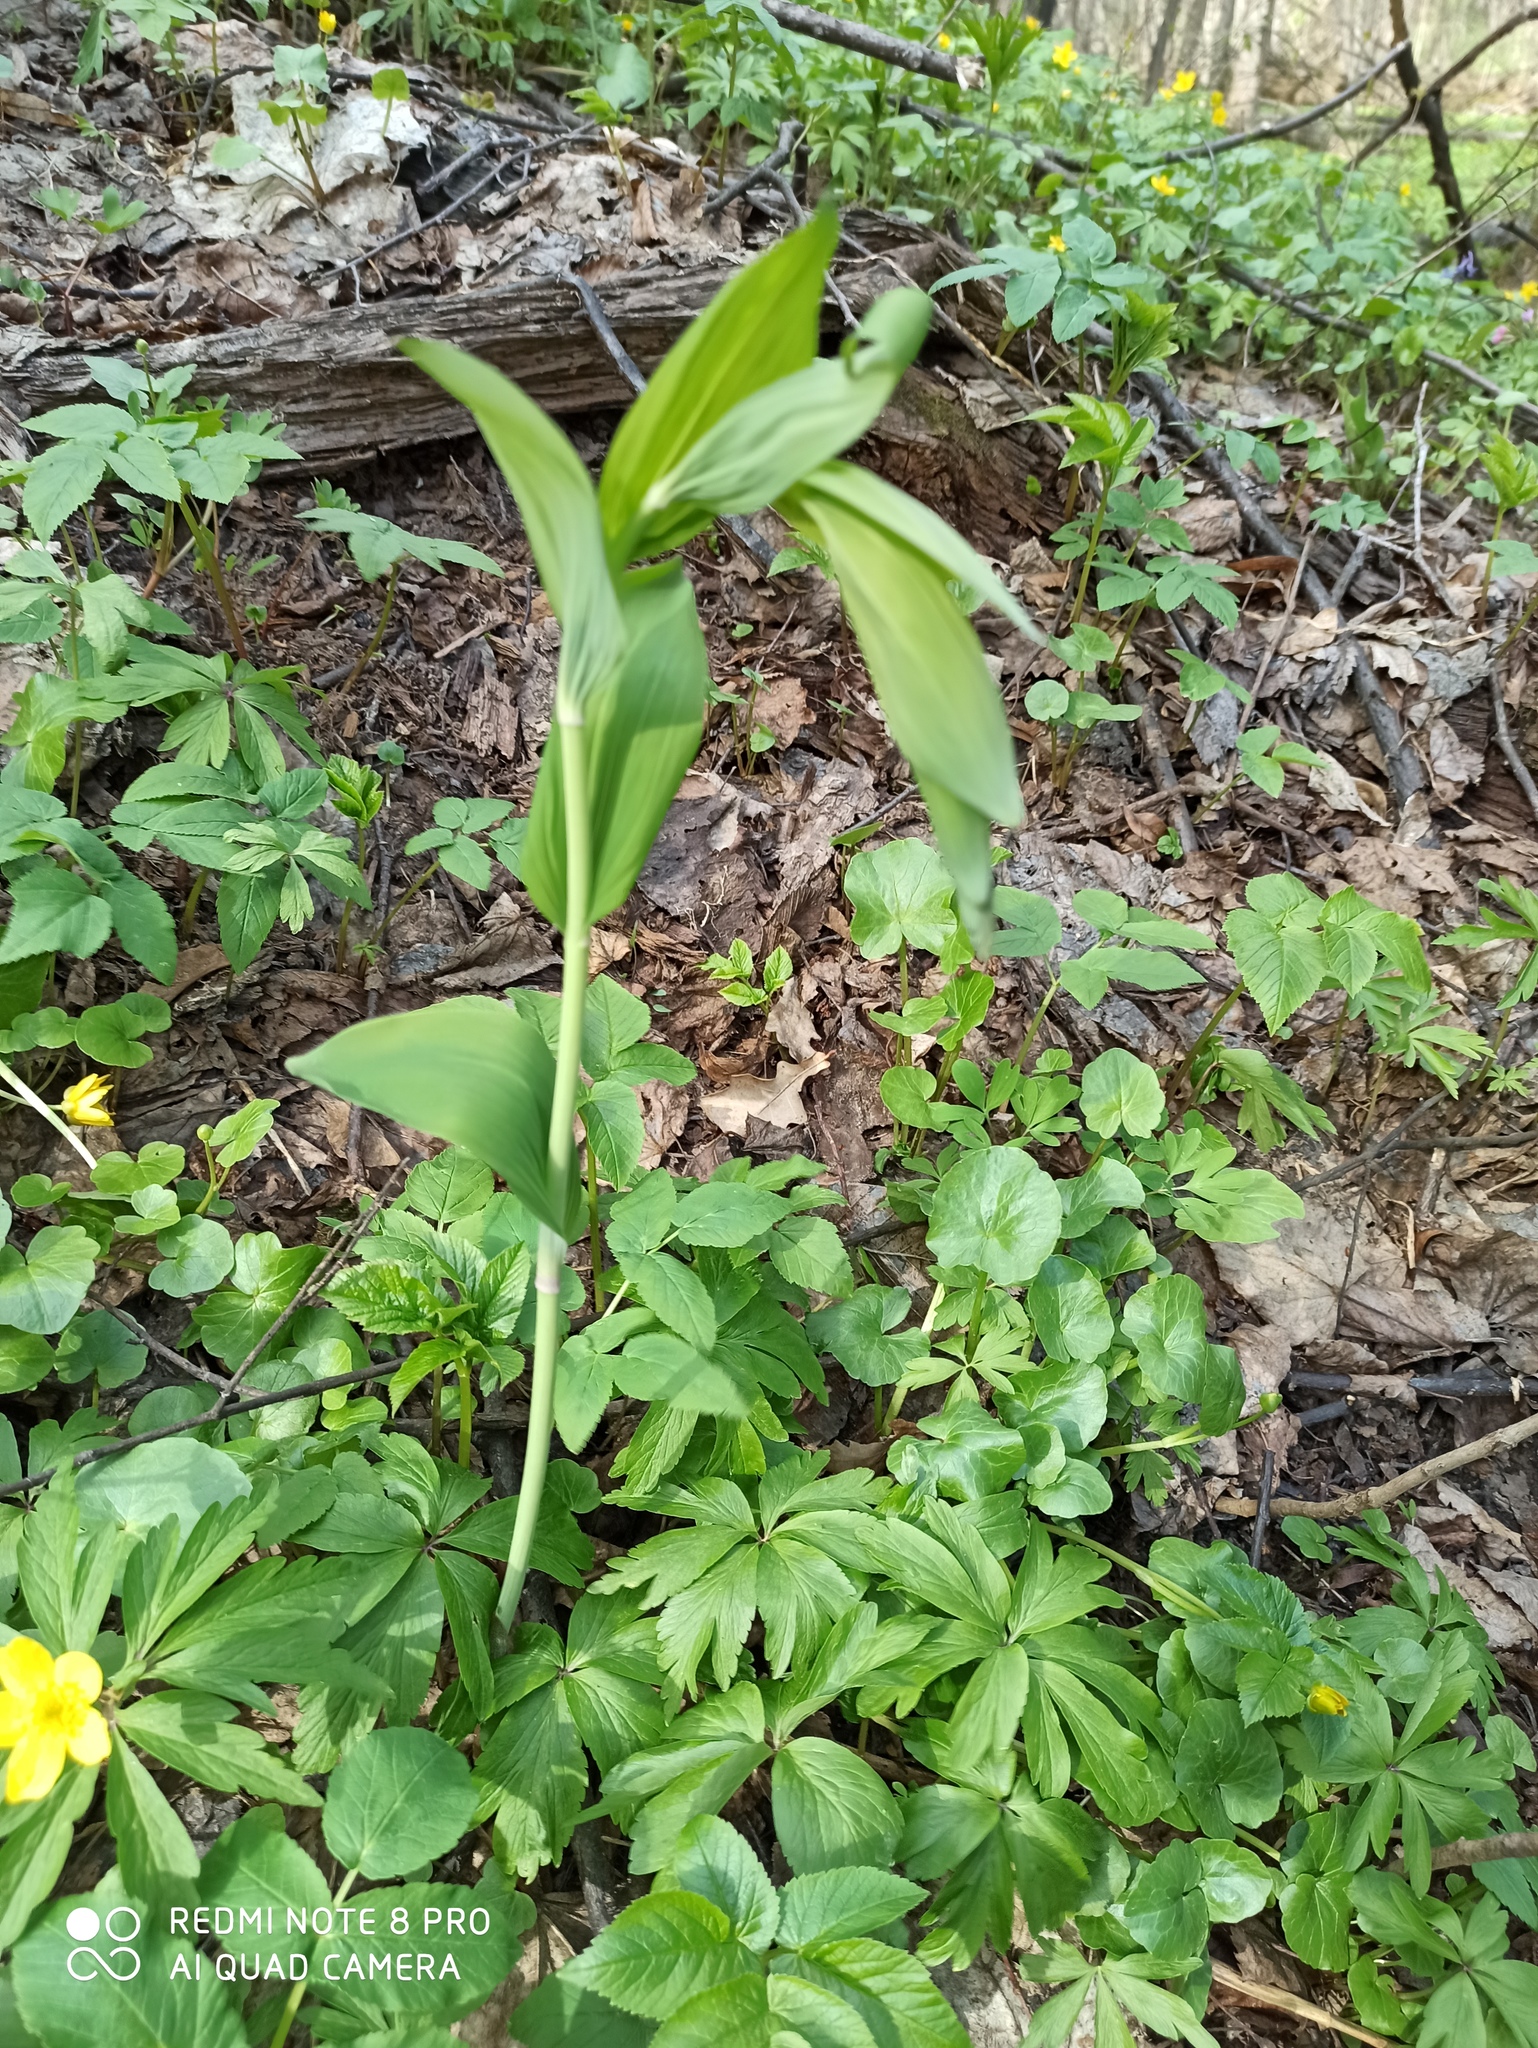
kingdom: Plantae
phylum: Tracheophyta
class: Liliopsida
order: Asparagales
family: Asparagaceae
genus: Polygonatum
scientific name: Polygonatum multiflorum
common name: Solomon's-seal
